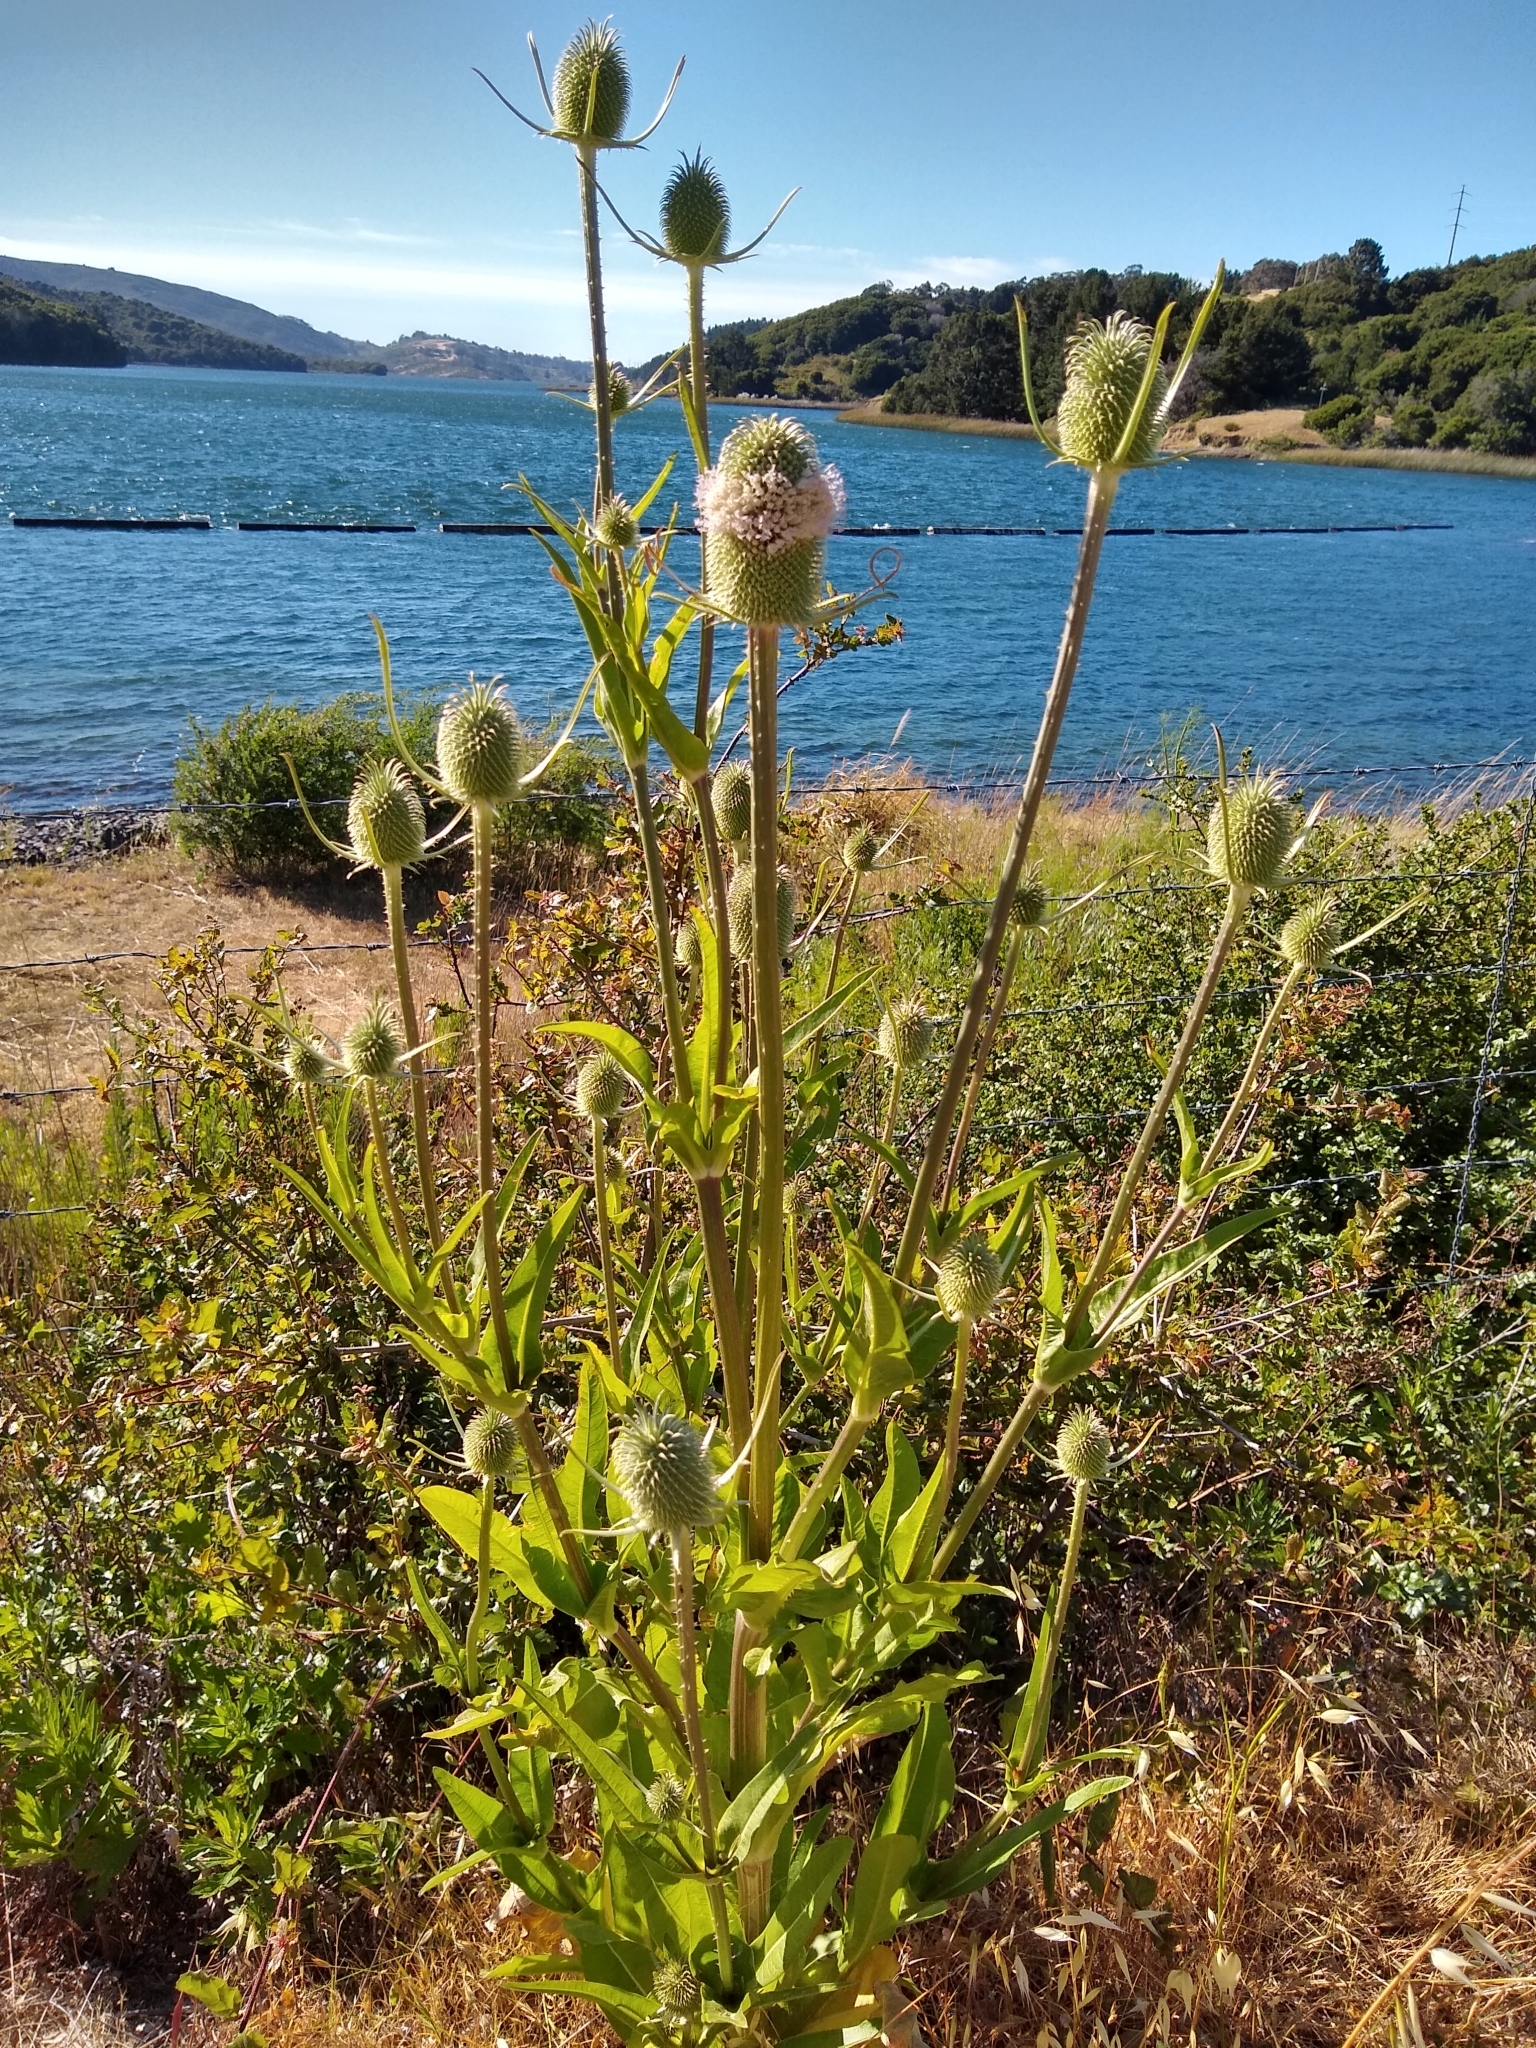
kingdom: Plantae
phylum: Tracheophyta
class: Magnoliopsida
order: Dipsacales
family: Caprifoliaceae
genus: Dipsacus
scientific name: Dipsacus sativus
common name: Fuller's teasel
